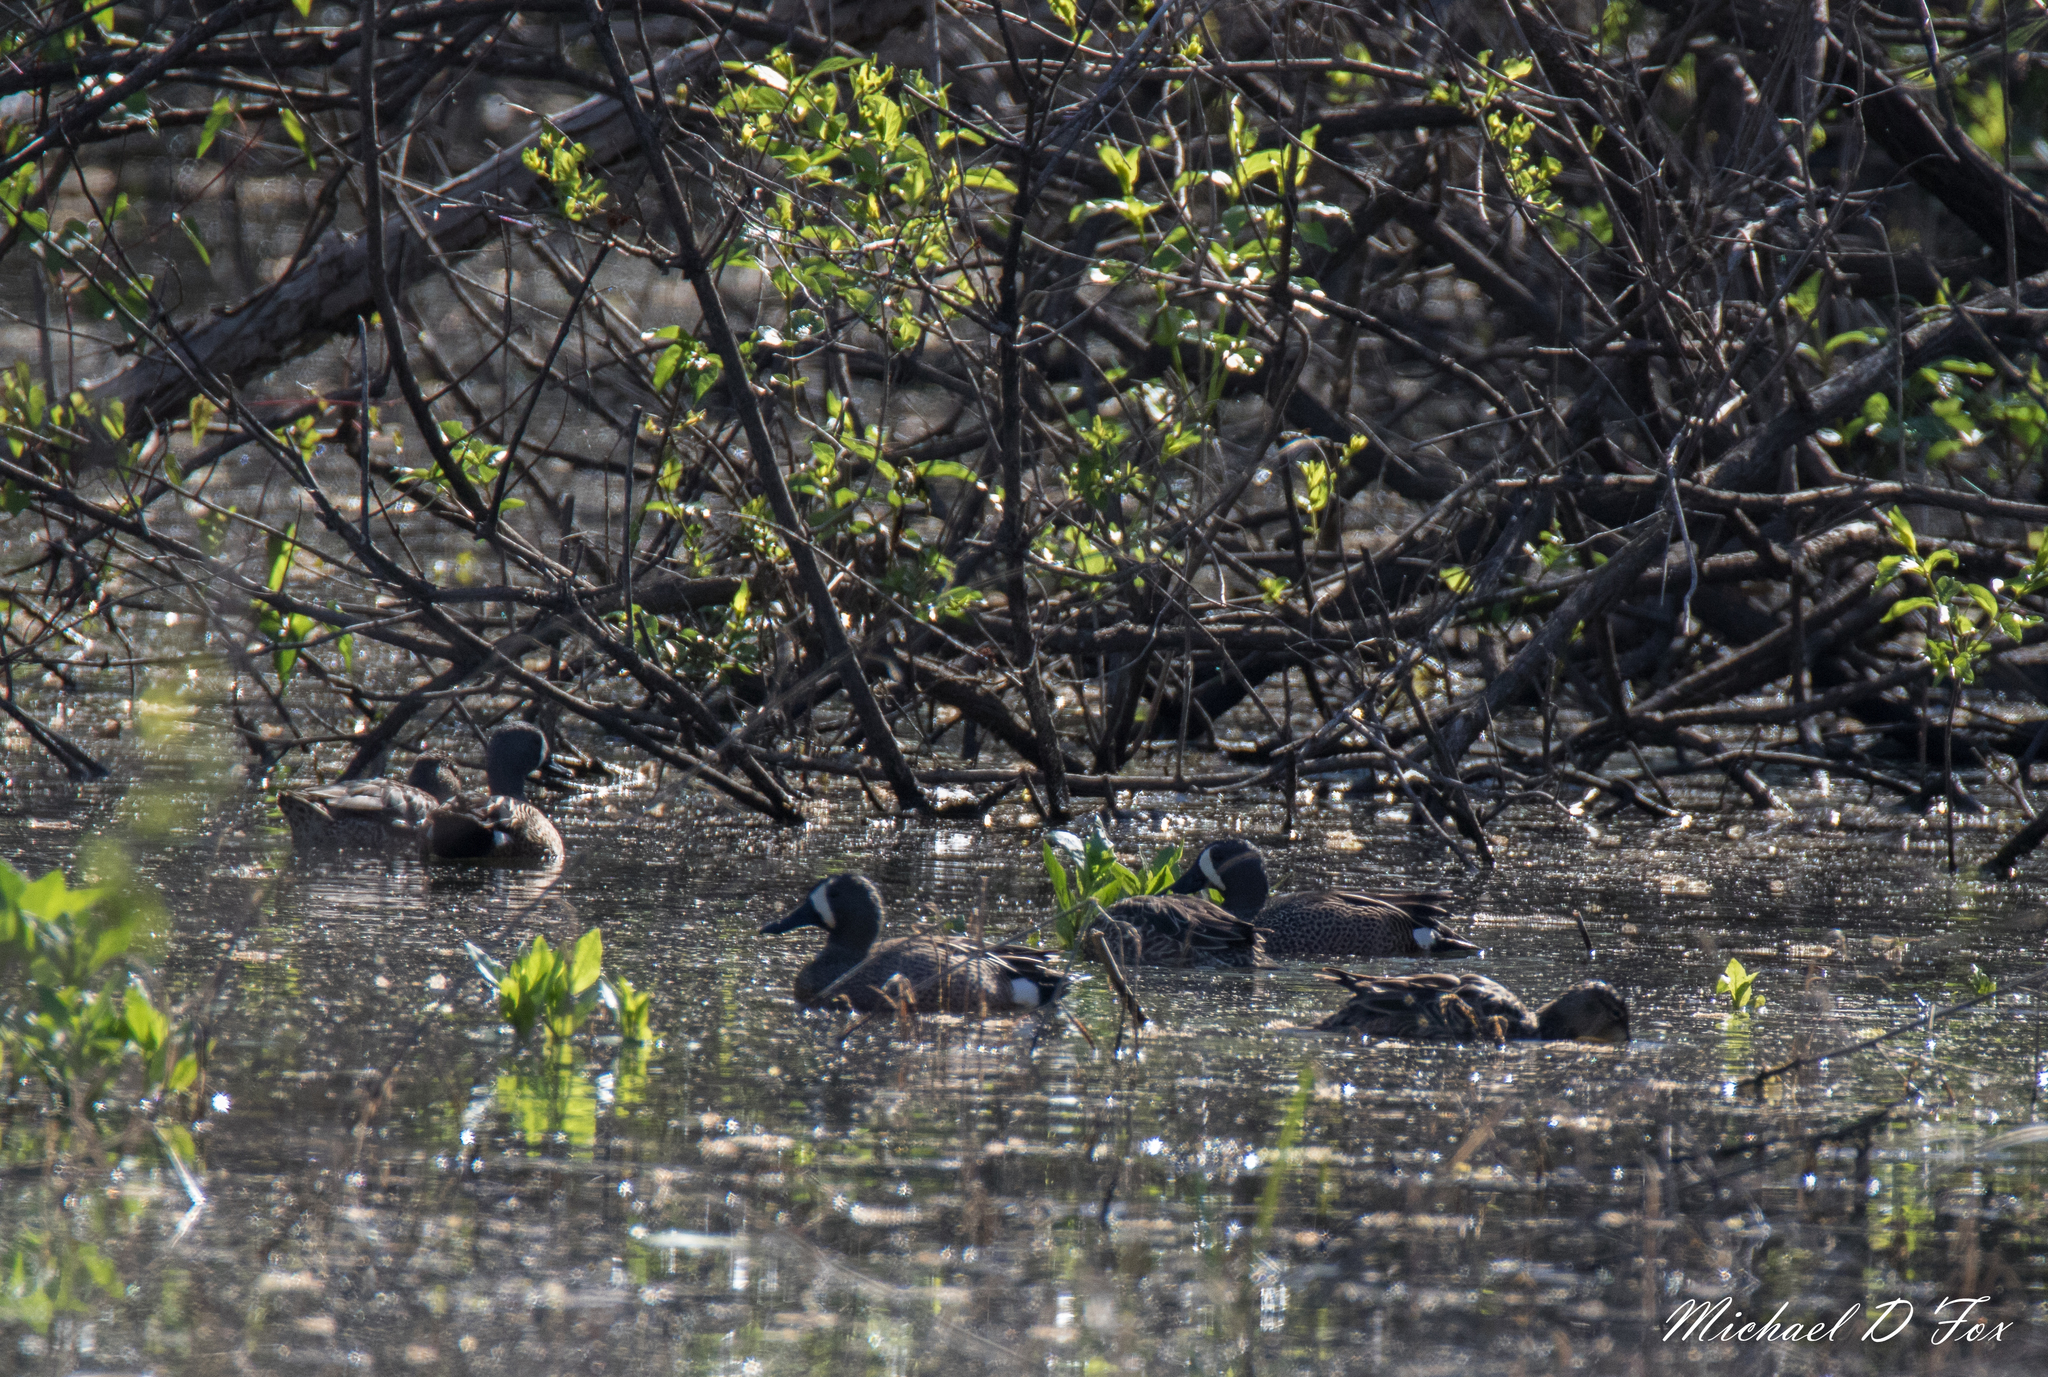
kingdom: Animalia
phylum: Chordata
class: Aves
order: Anseriformes
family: Anatidae
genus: Spatula
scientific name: Spatula discors
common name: Blue-winged teal
